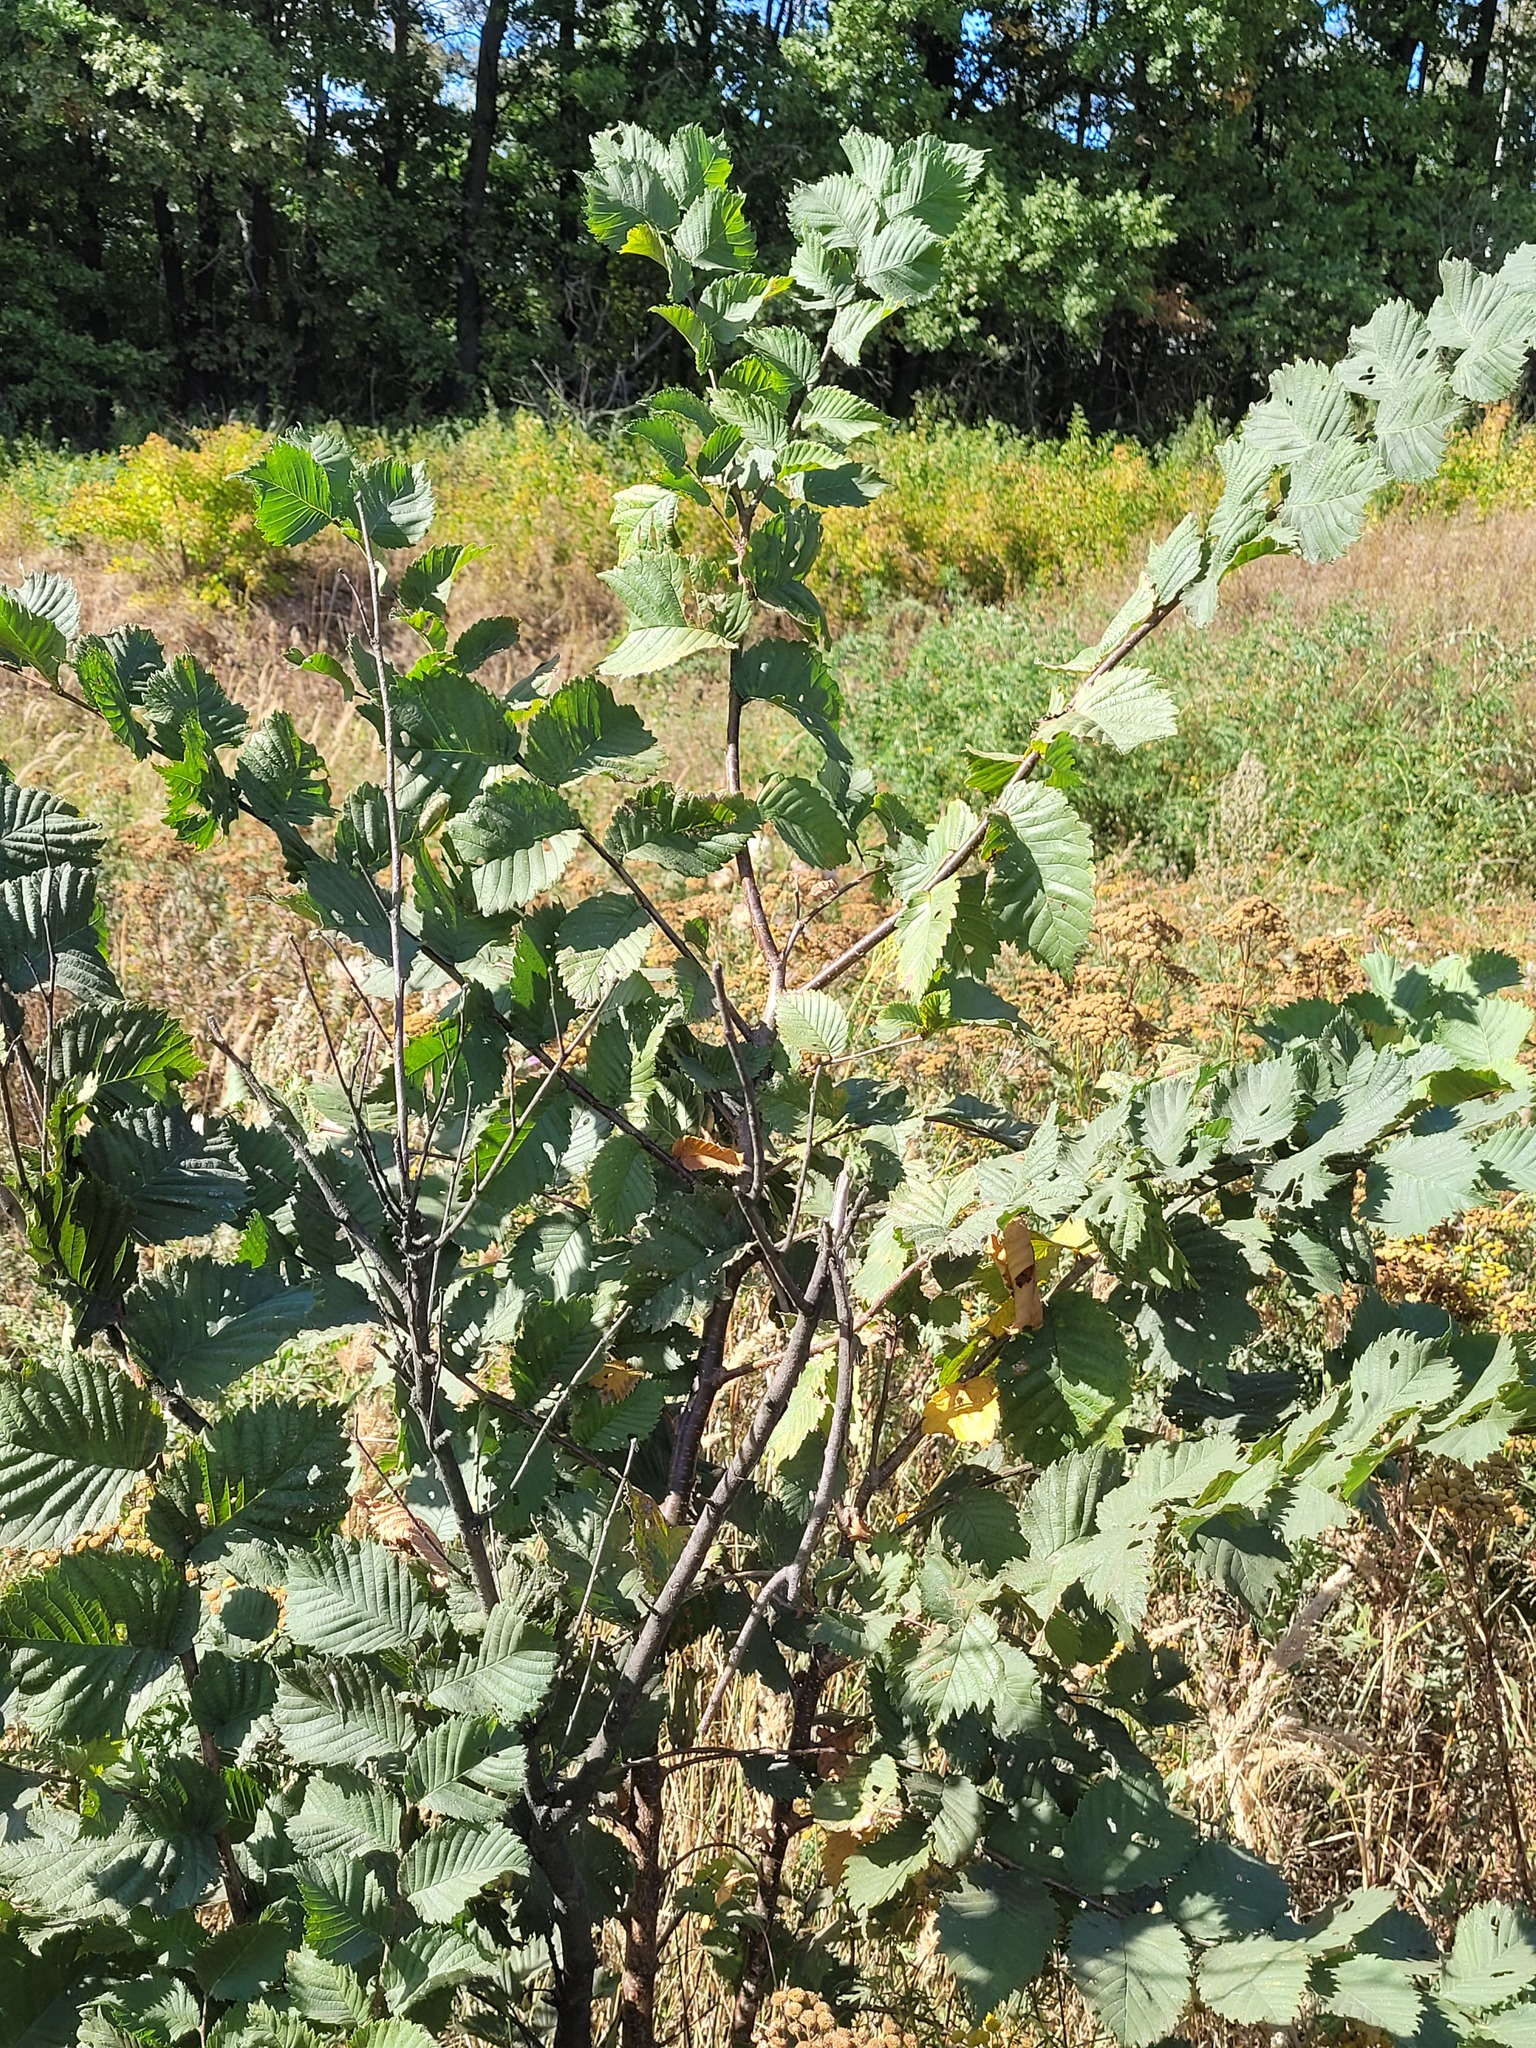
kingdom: Plantae
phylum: Tracheophyta
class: Magnoliopsida
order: Rosales
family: Ulmaceae
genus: Ulmus
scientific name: Ulmus laevis
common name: European white-elm
